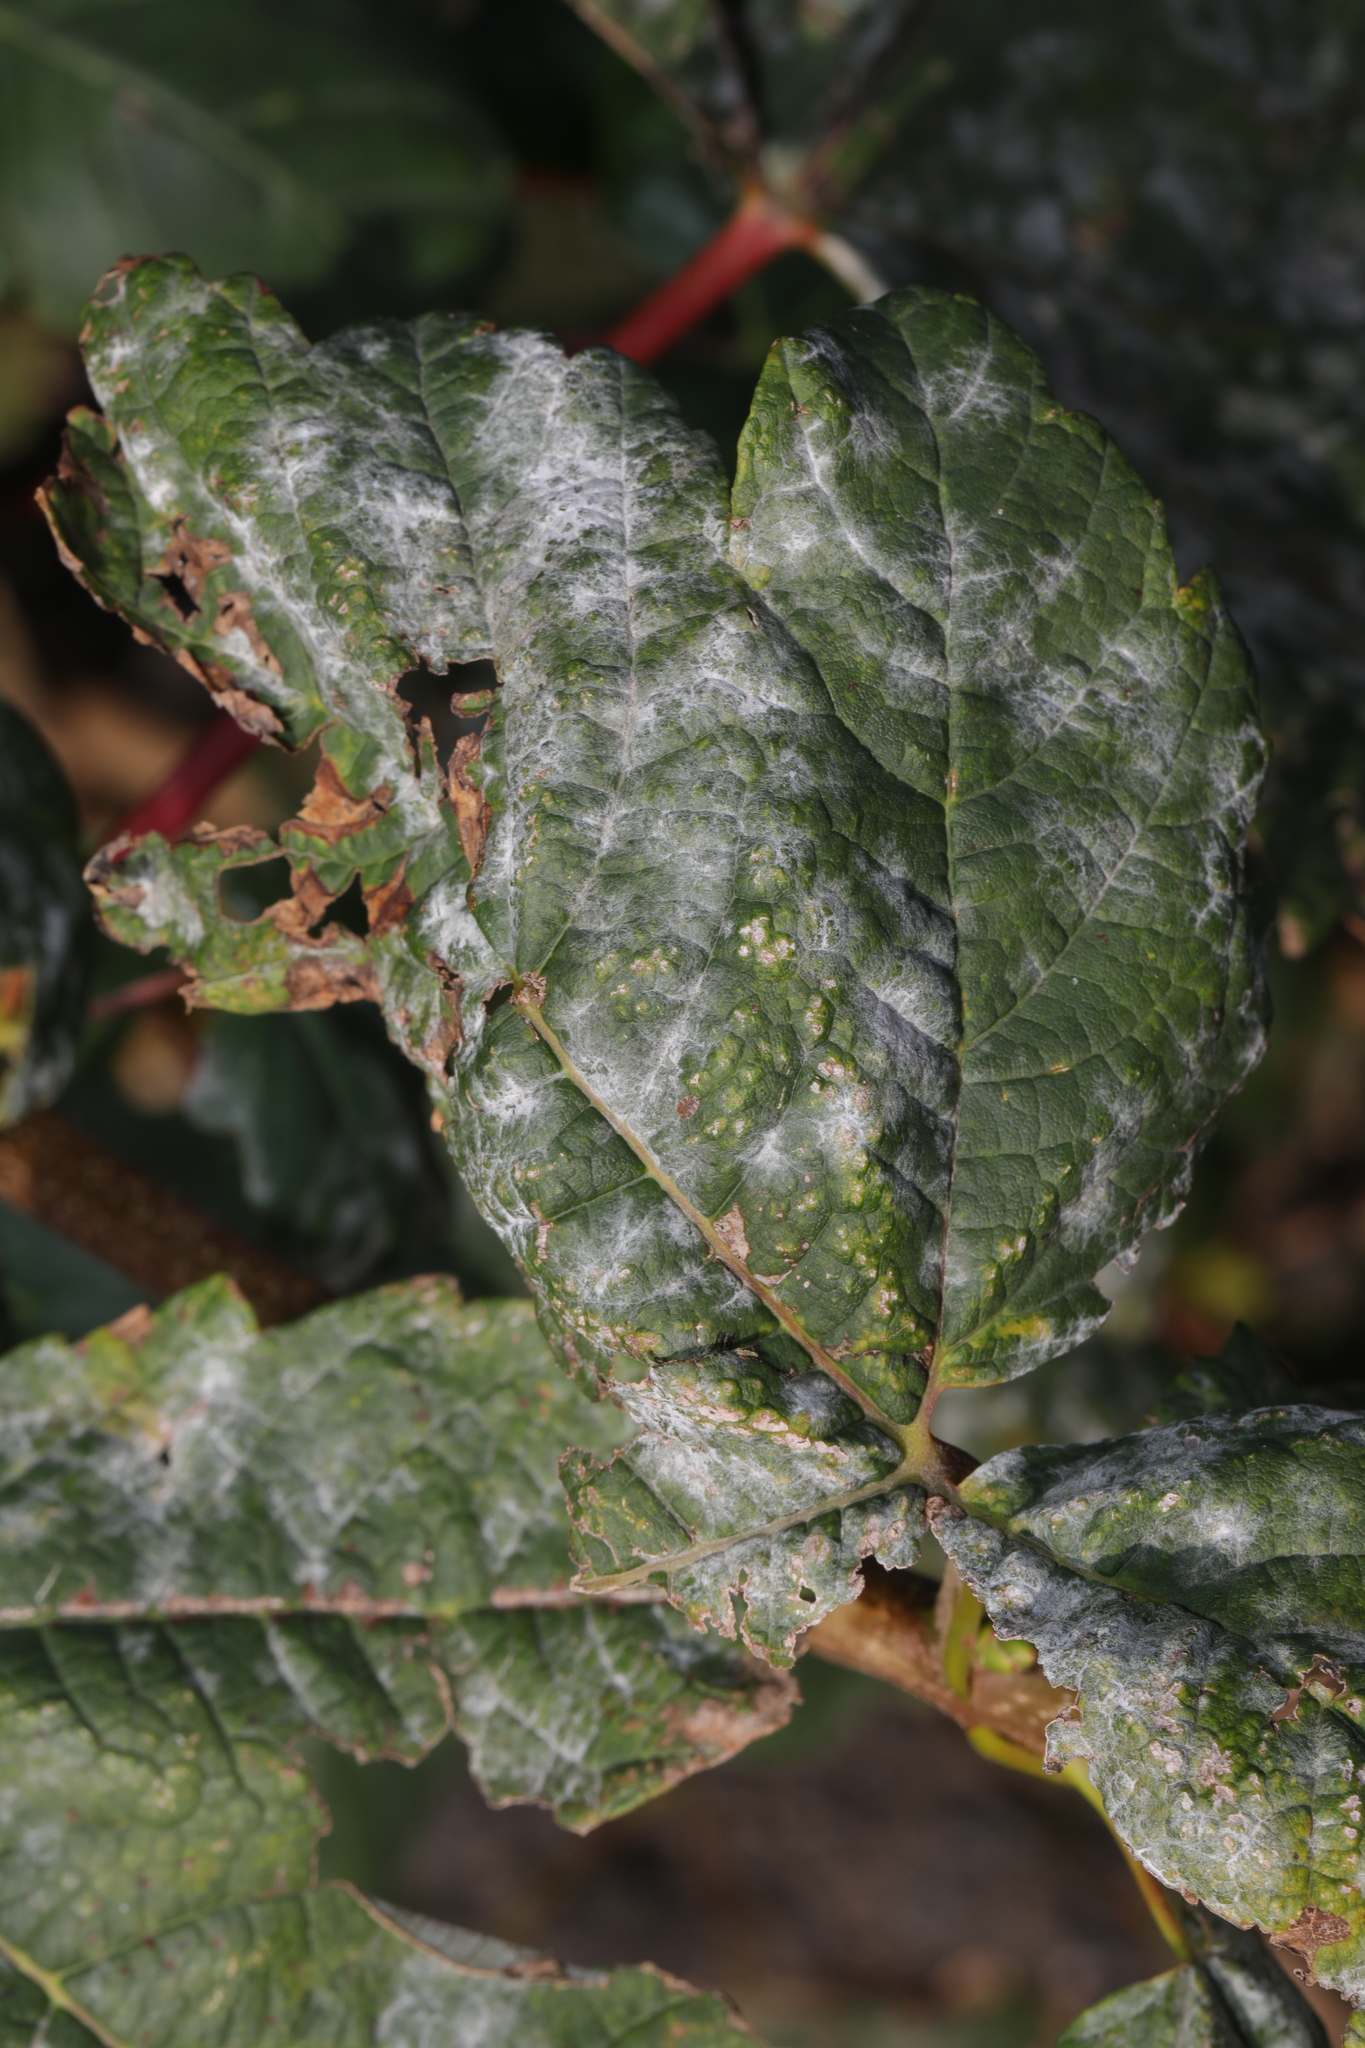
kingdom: Fungi
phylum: Ascomycota
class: Leotiomycetes
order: Helotiales
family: Erysiphaceae
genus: Sawadaea
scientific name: Sawadaea bicornis
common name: Maple mildew
